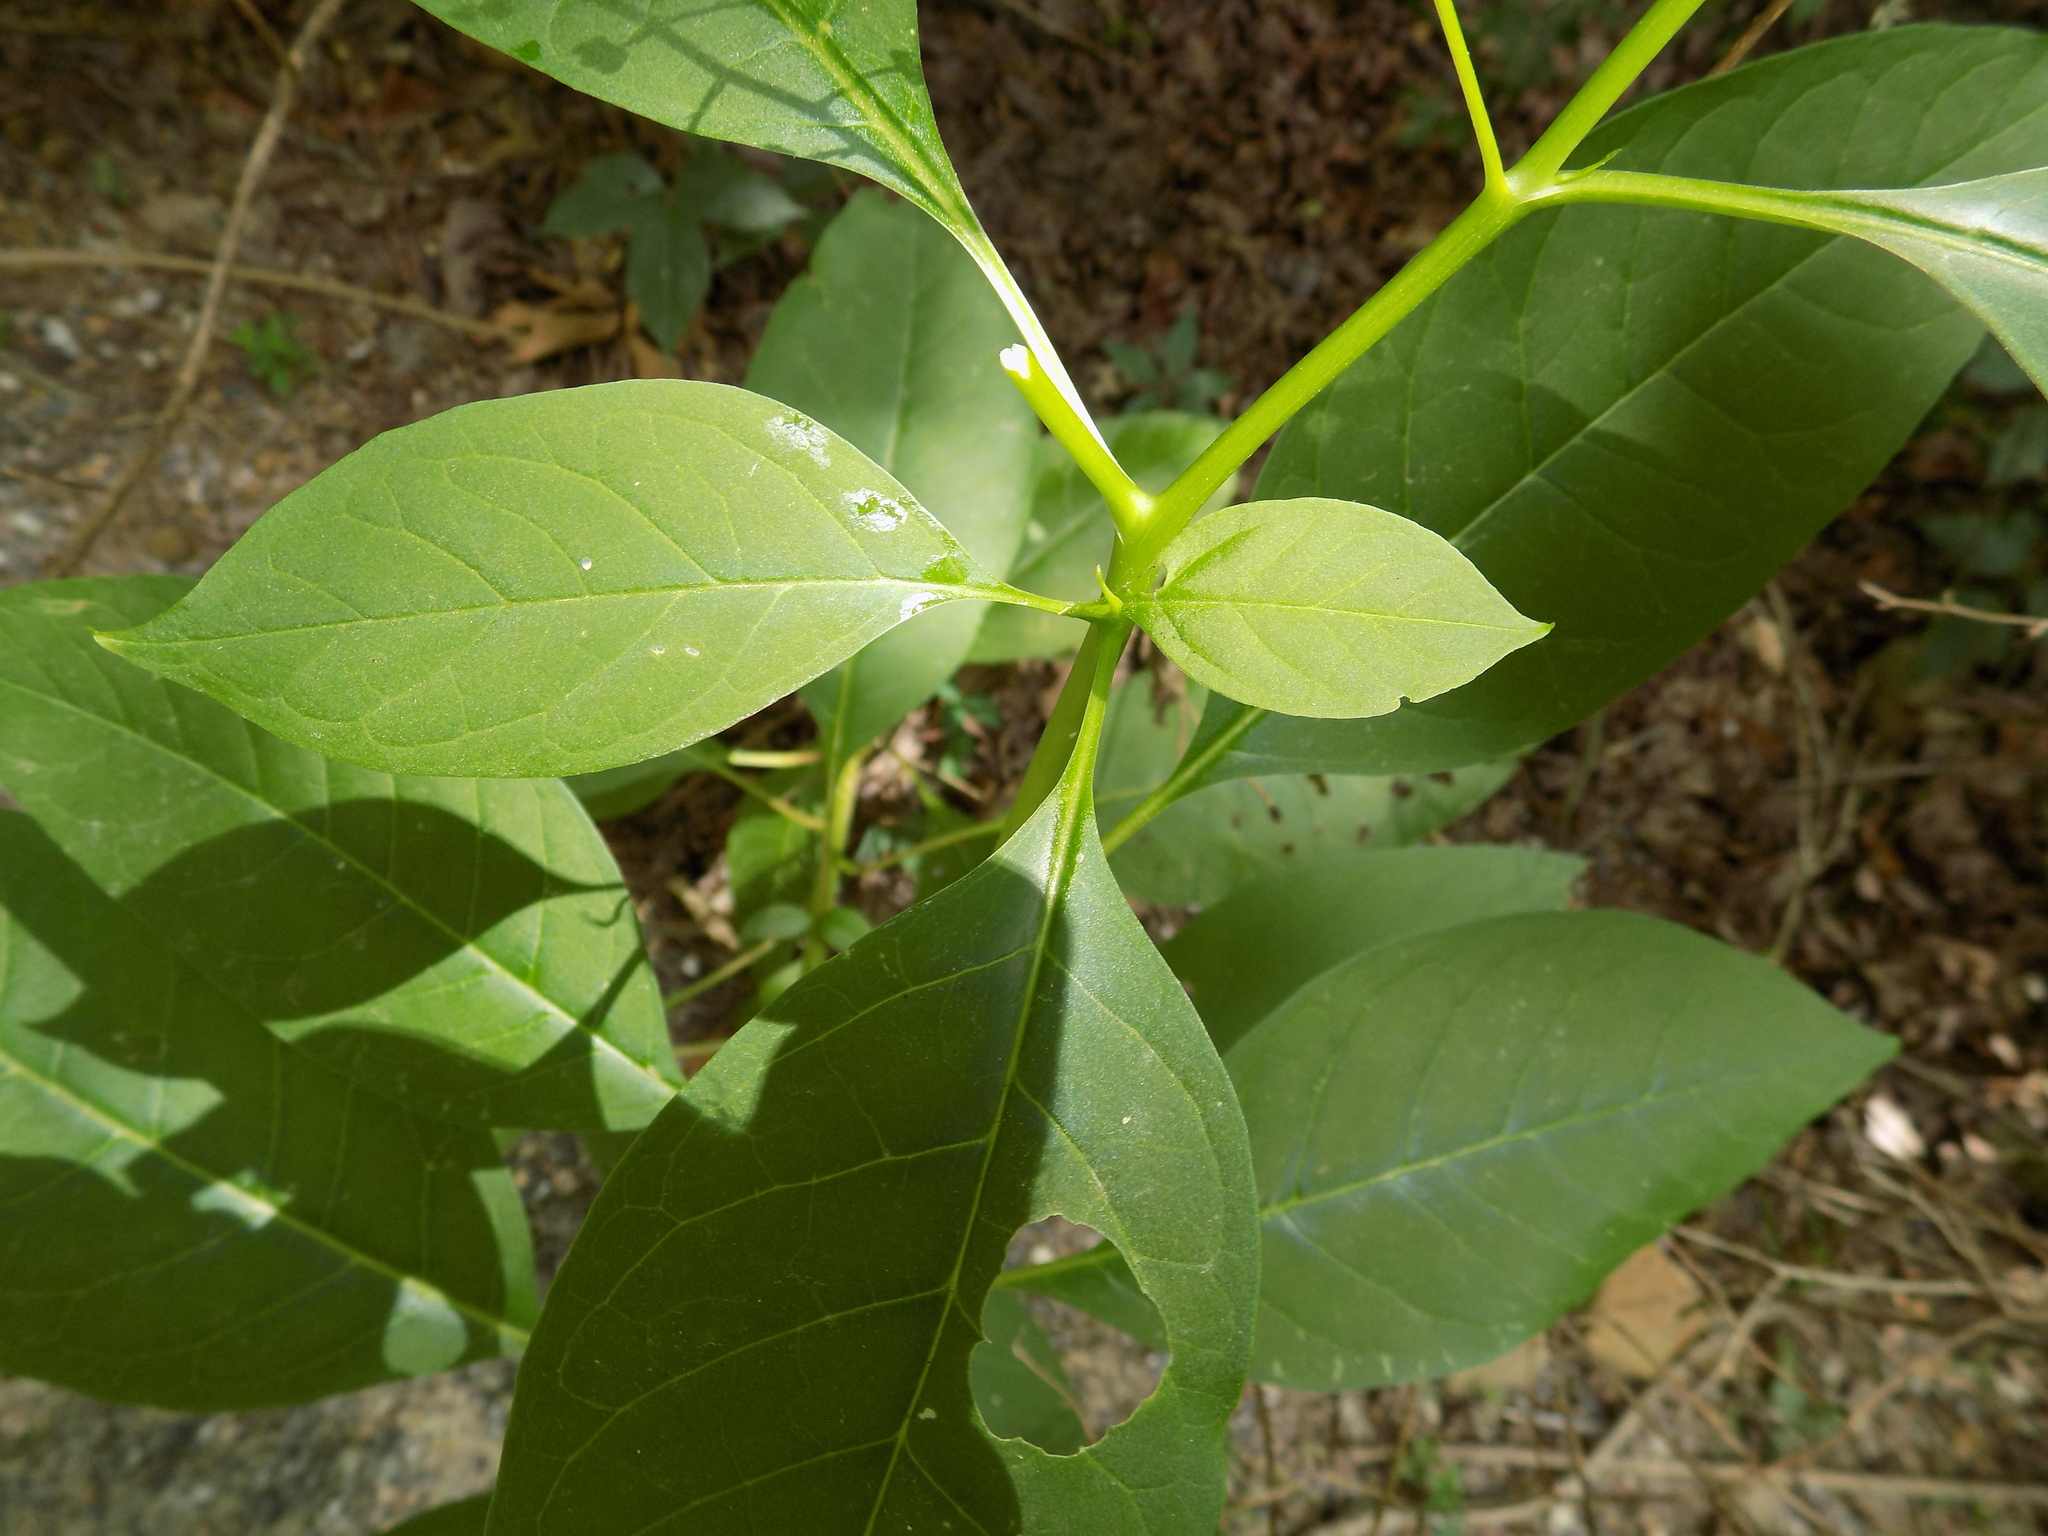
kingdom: Plantae
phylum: Tracheophyta
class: Magnoliopsida
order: Caryophyllales
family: Phytolaccaceae
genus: Phytolacca
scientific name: Phytolacca americana
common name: American pokeweed
